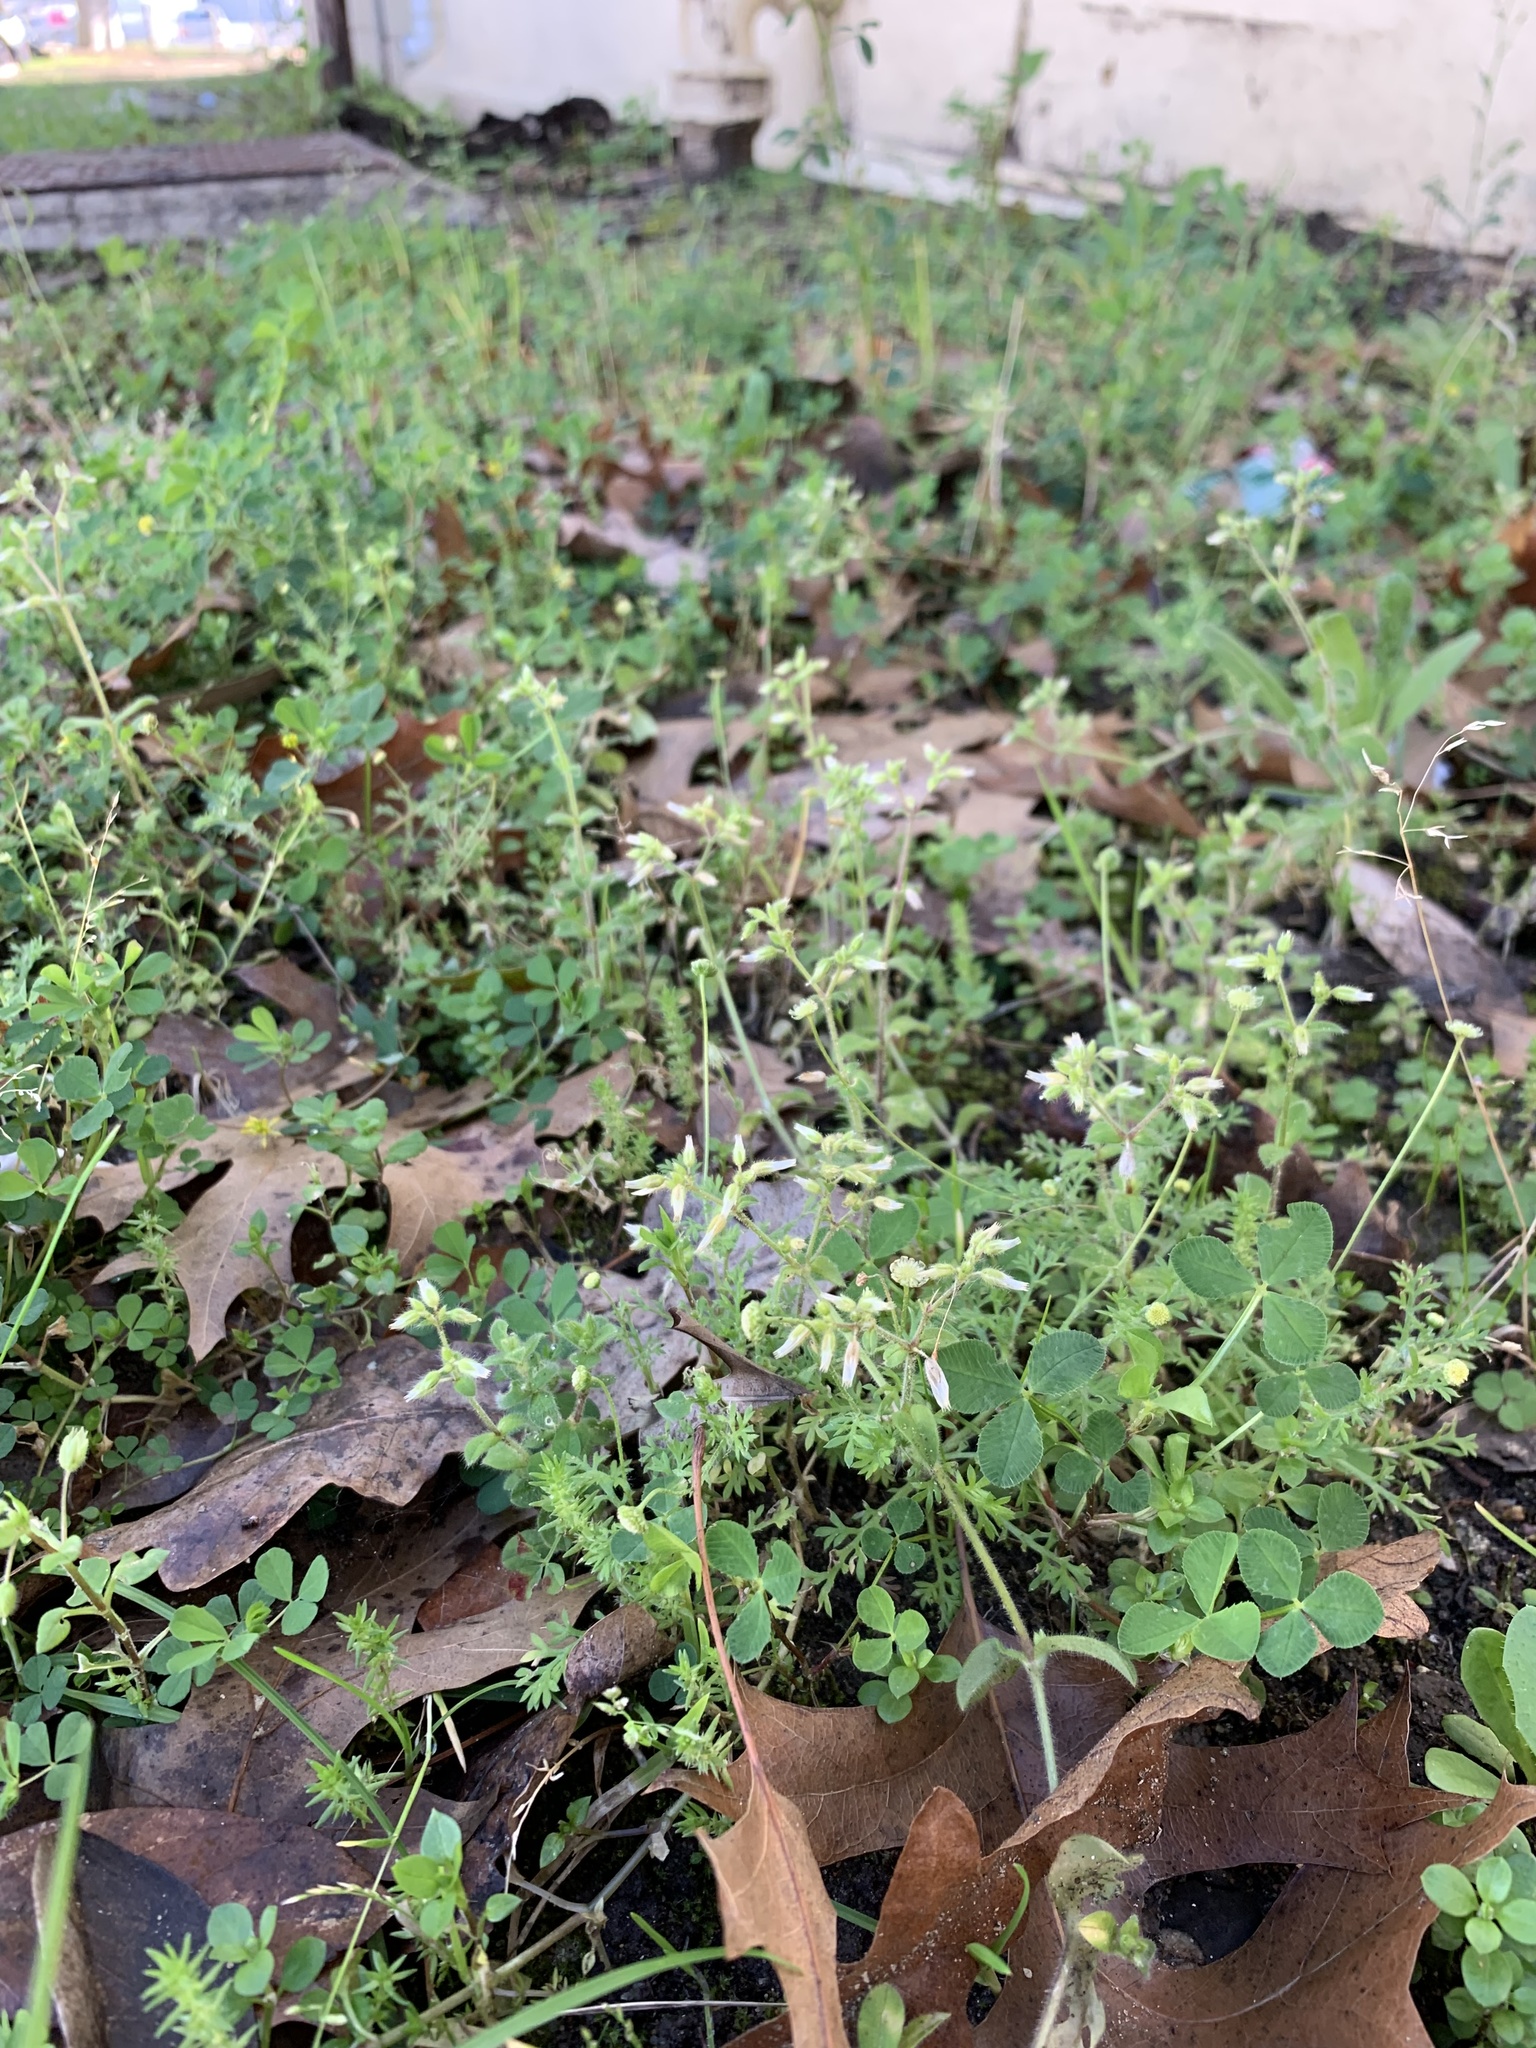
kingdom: Plantae
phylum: Tracheophyta
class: Magnoliopsida
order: Caryophyllales
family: Caryophyllaceae
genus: Cerastium
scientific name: Cerastium glomeratum
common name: Sticky chickweed
